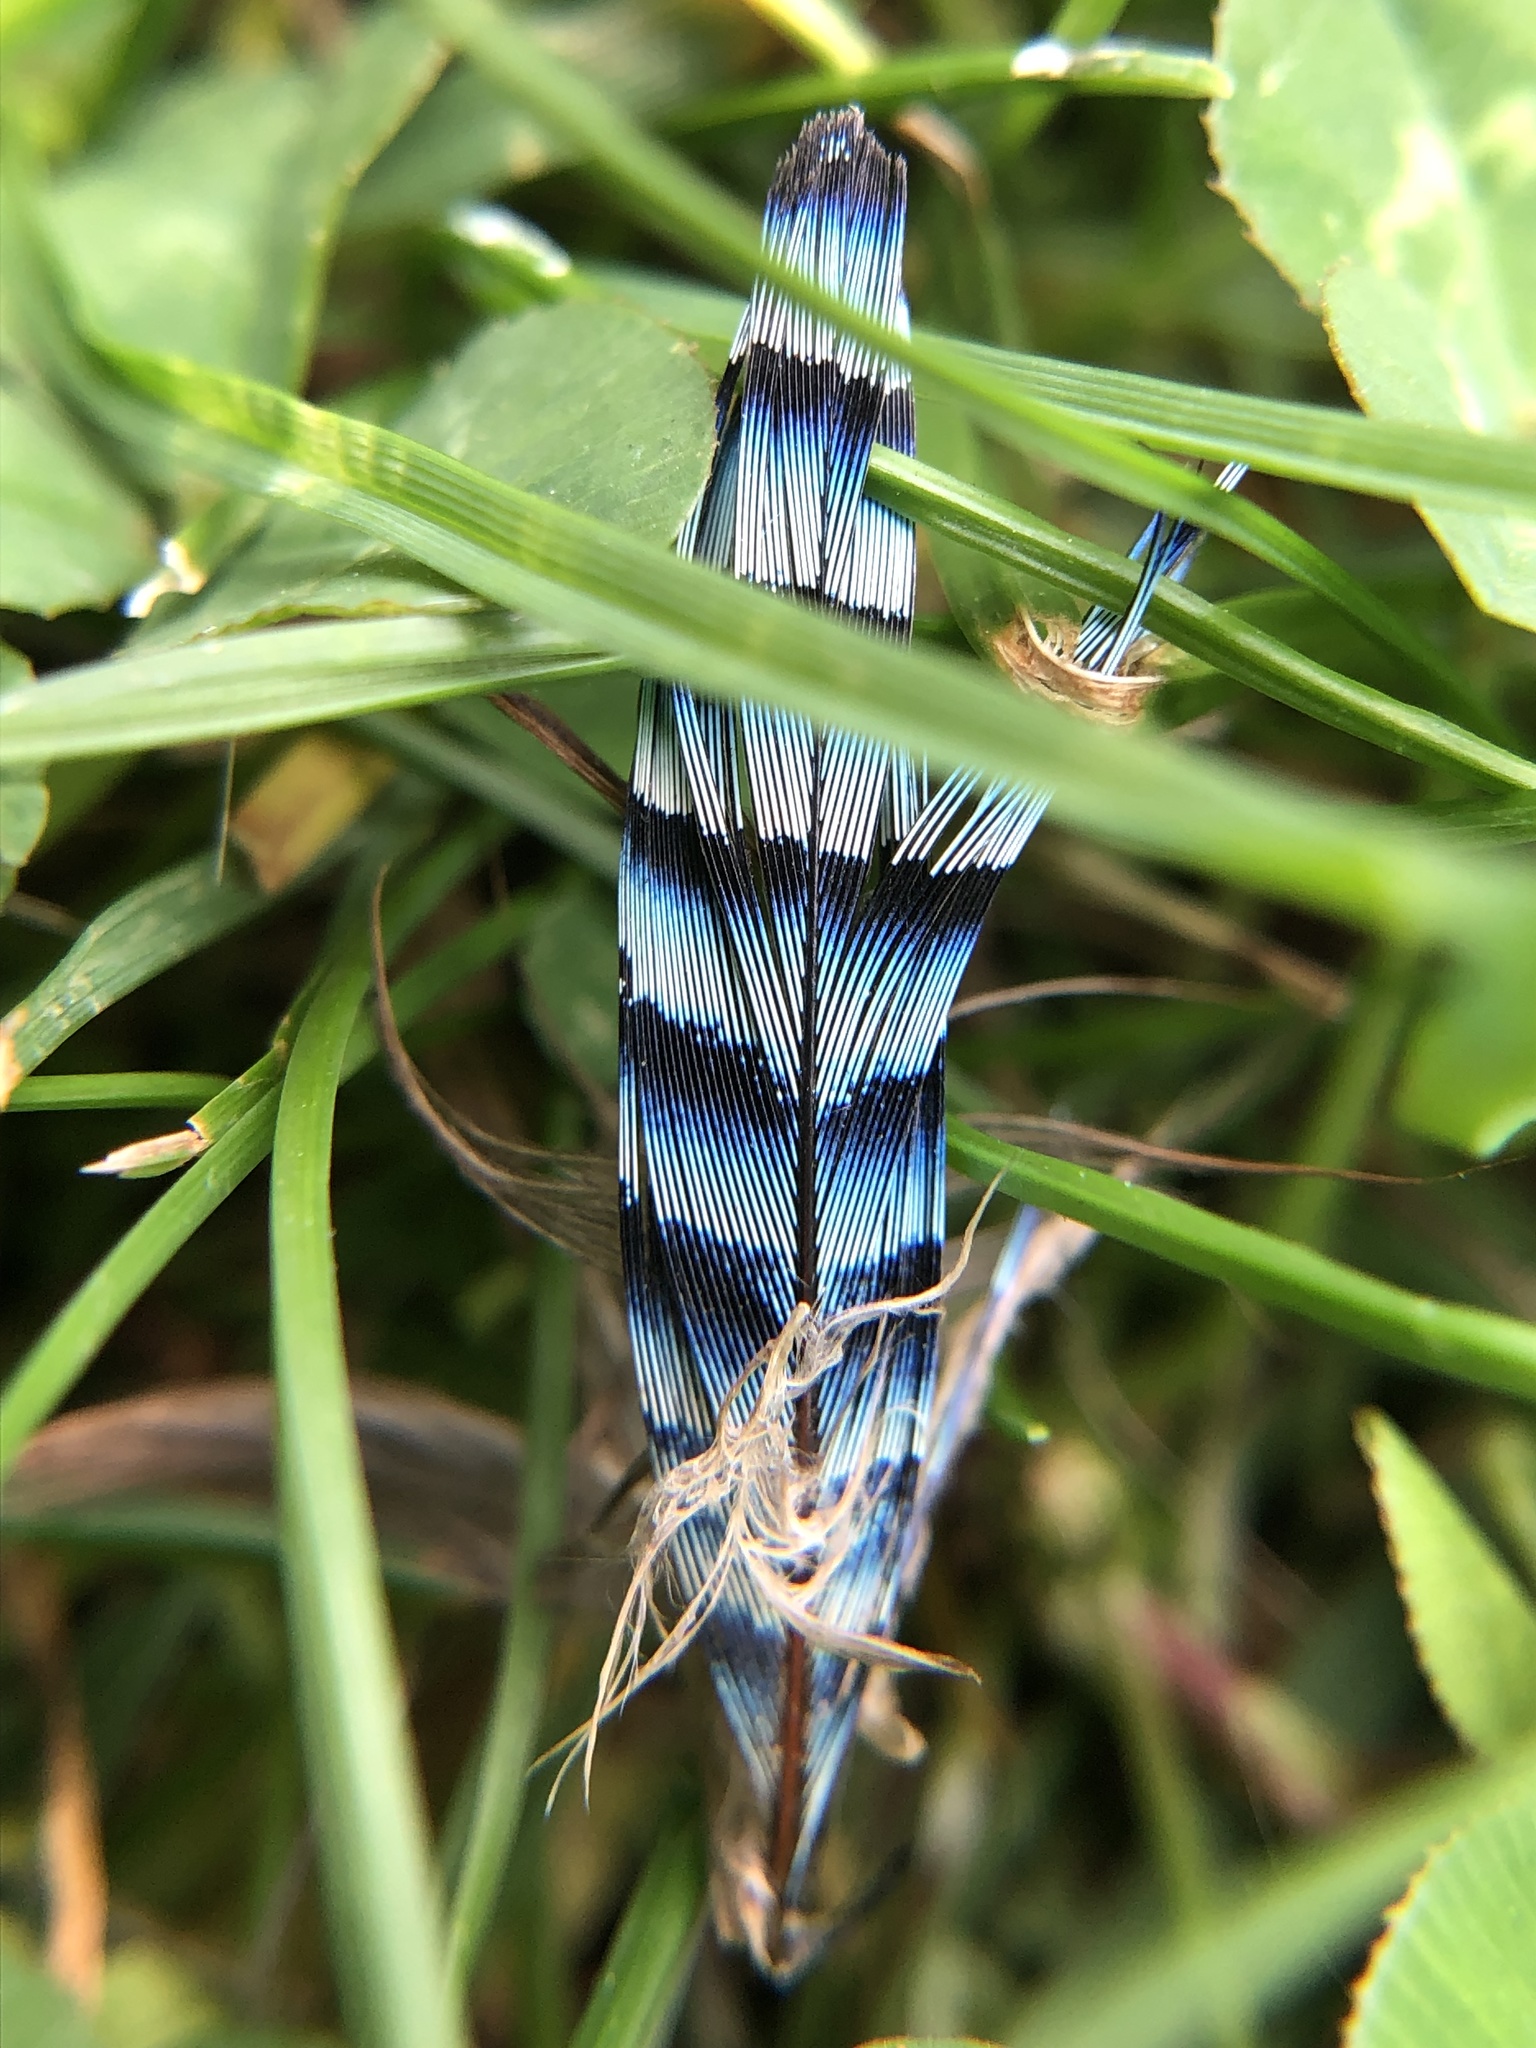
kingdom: Animalia
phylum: Chordata
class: Aves
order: Passeriformes
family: Corvidae
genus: Garrulus
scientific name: Garrulus glandarius
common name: Eurasian jay
